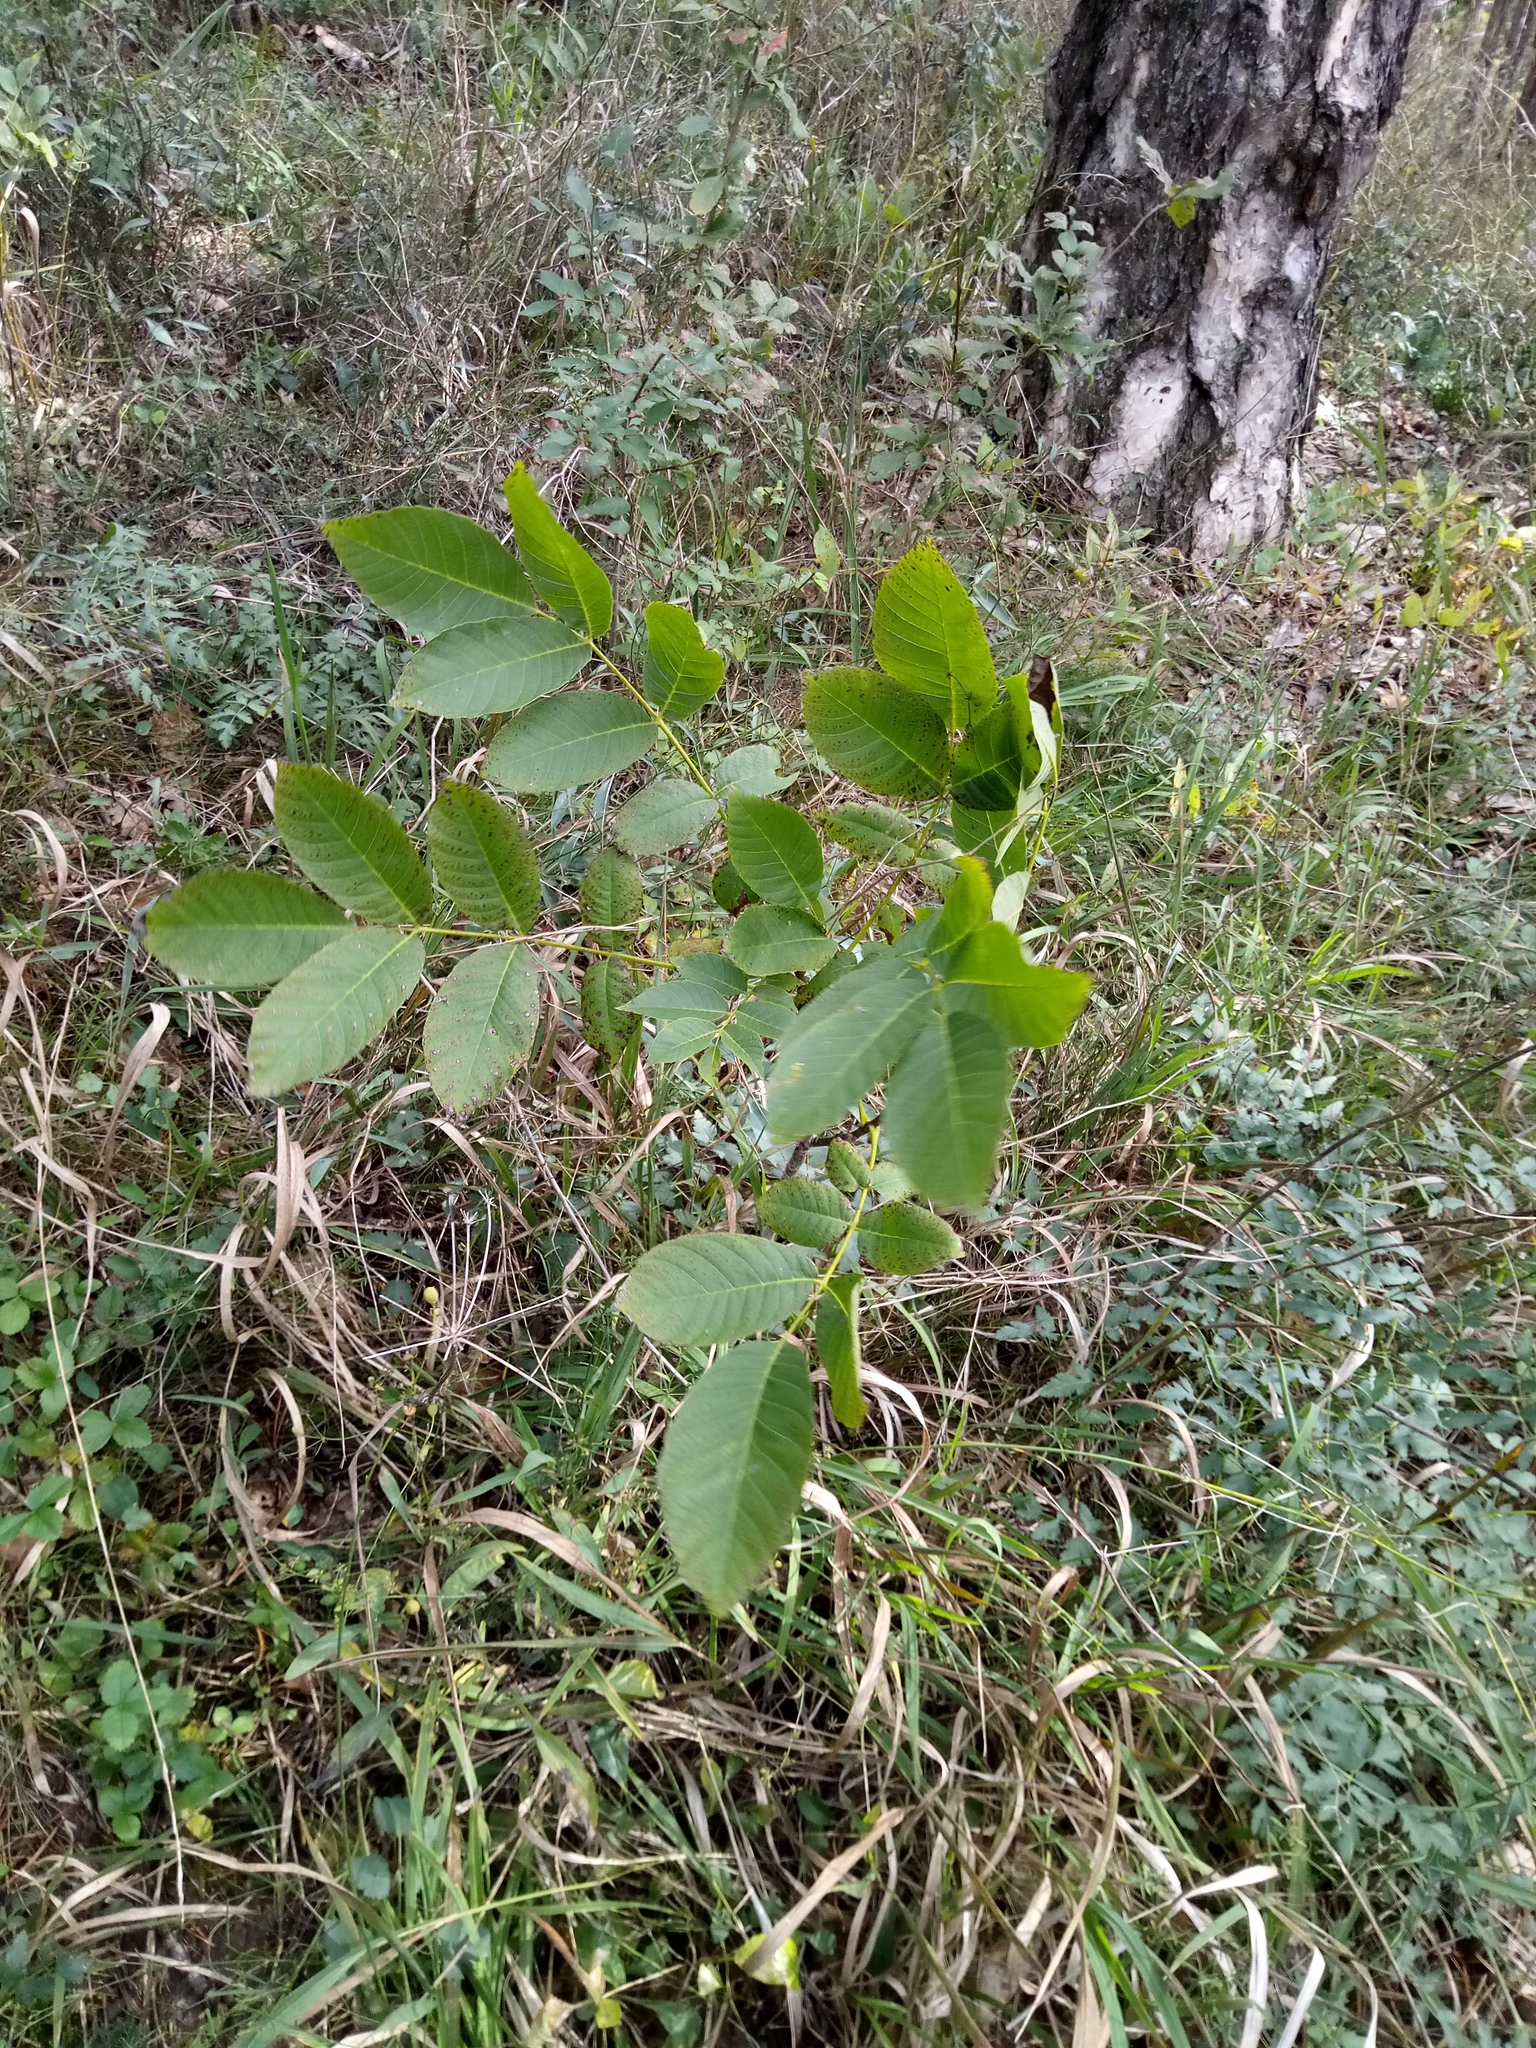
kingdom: Plantae
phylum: Tracheophyta
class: Magnoliopsida
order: Fagales
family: Juglandaceae
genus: Juglans
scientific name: Juglans regia
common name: Walnut
